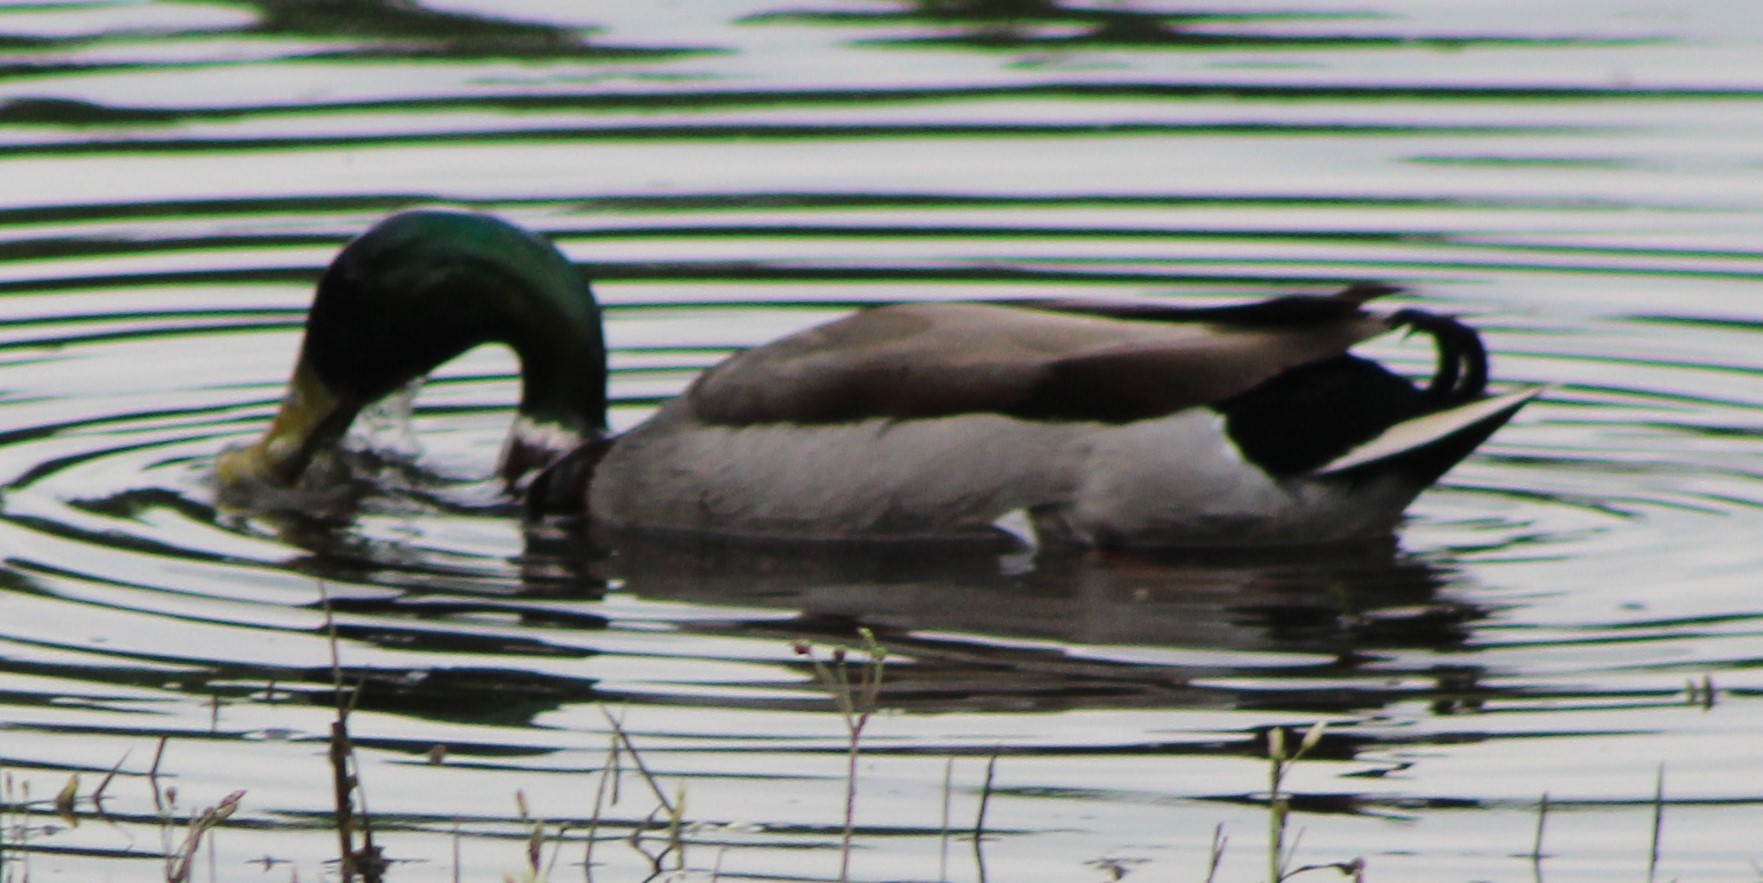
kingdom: Animalia
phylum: Chordata
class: Aves
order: Anseriformes
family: Anatidae
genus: Anas
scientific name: Anas platyrhynchos
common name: Mallard
